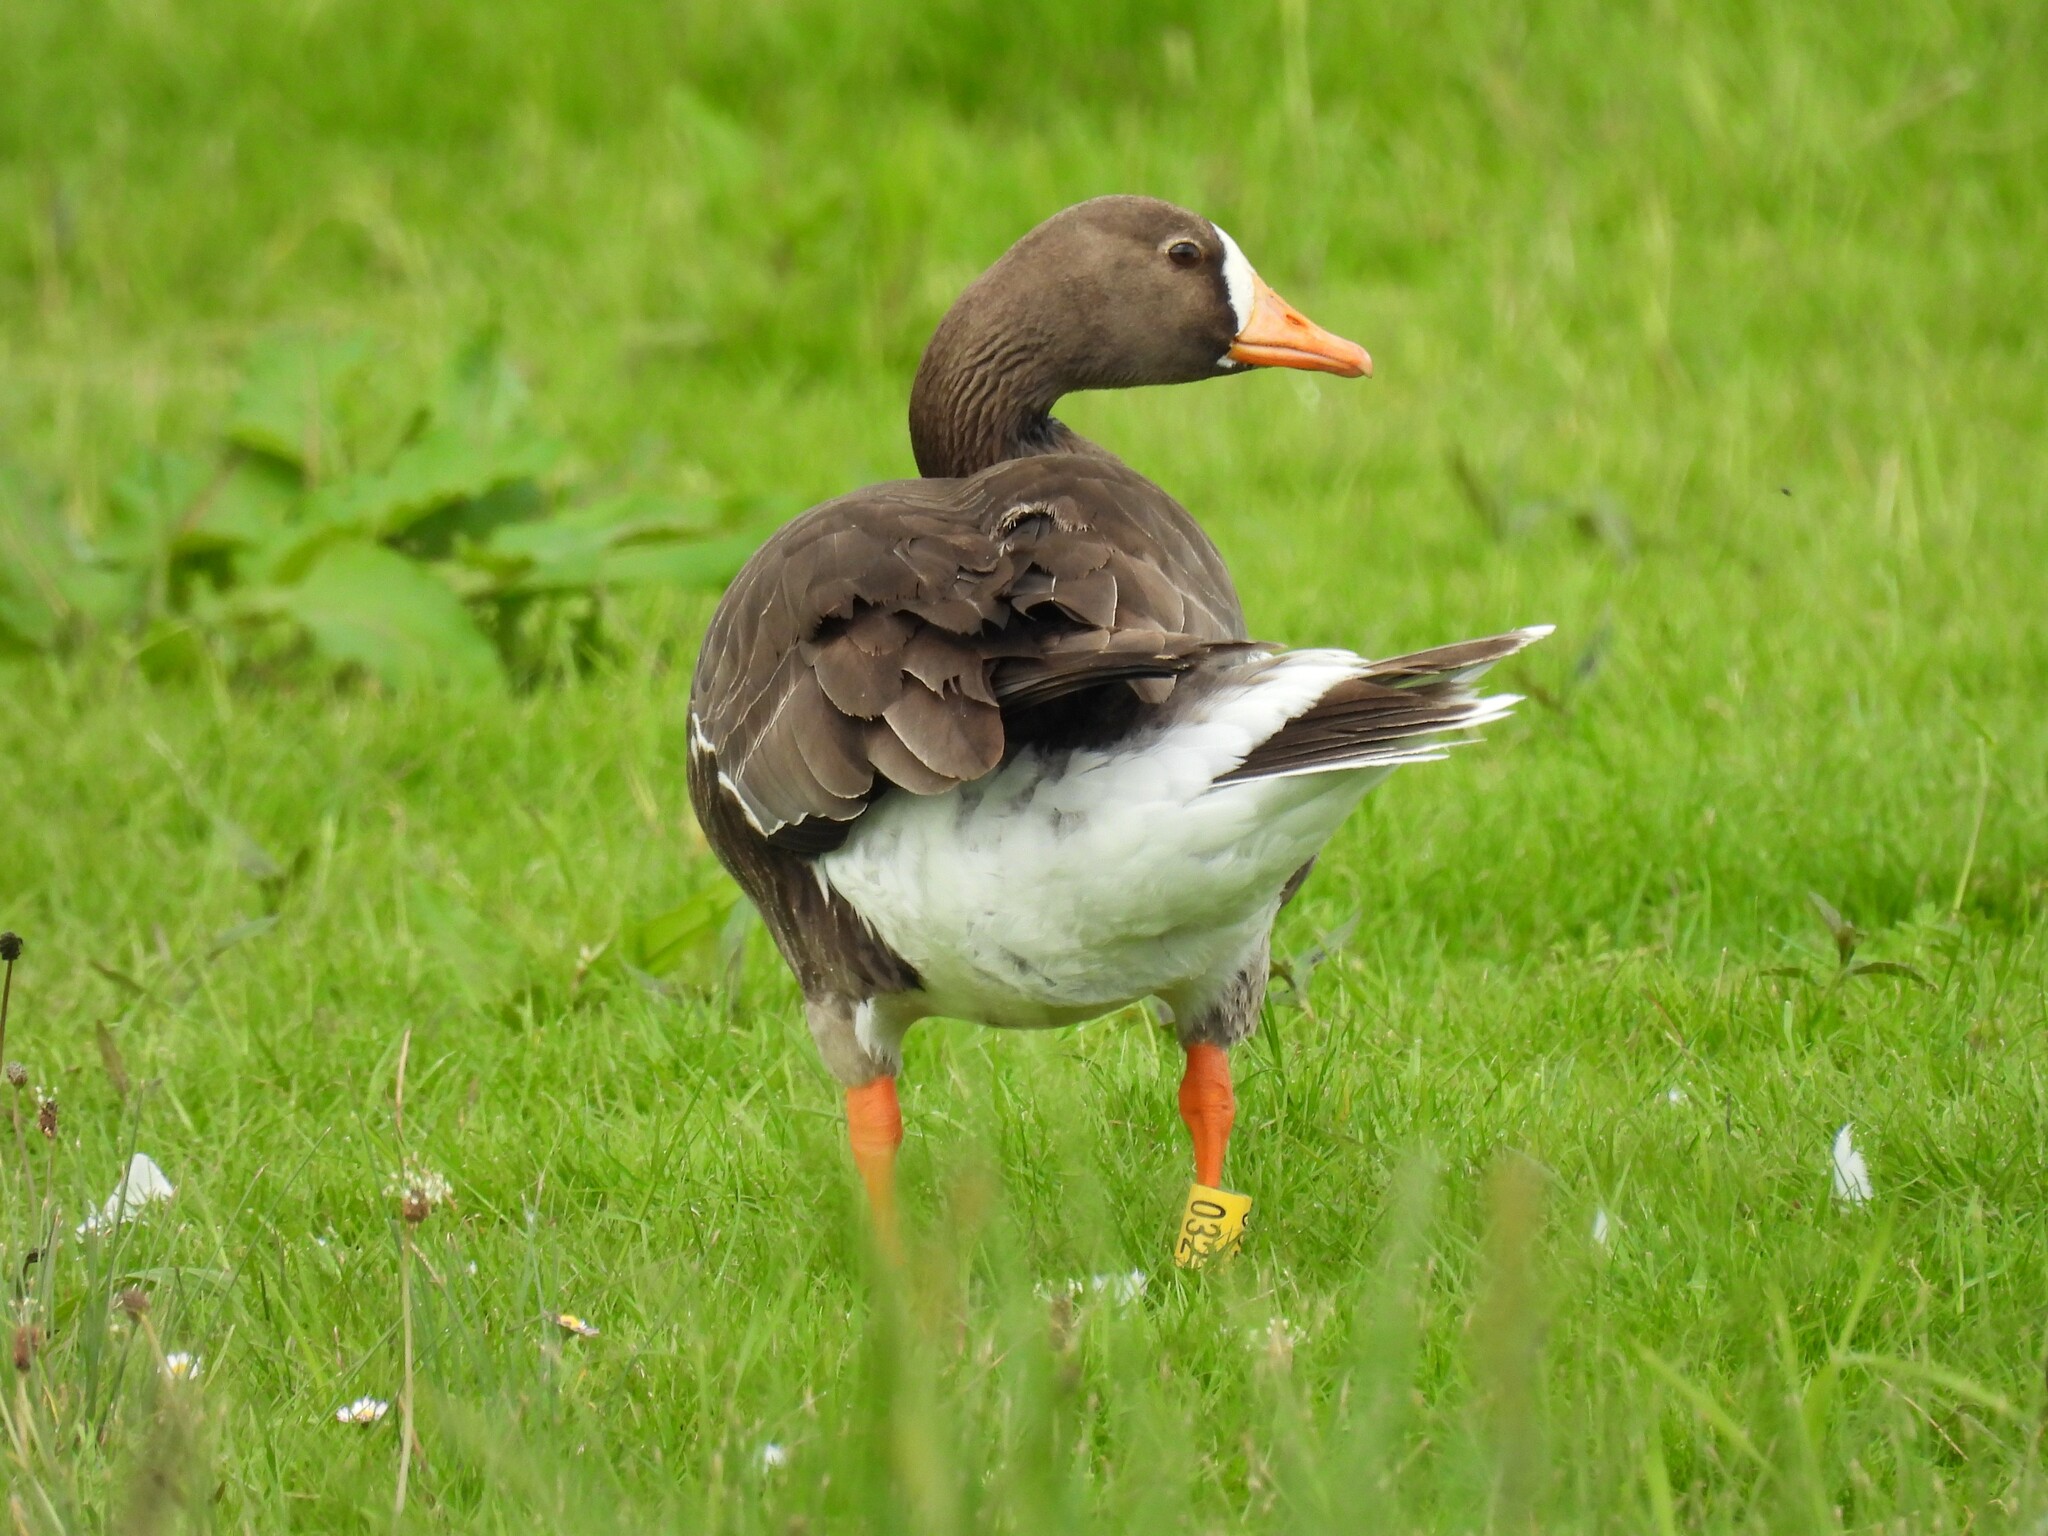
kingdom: Animalia
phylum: Chordata
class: Aves
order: Anseriformes
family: Anatidae
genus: Anser
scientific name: Anser albifrons
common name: Greater white-fronted goose
